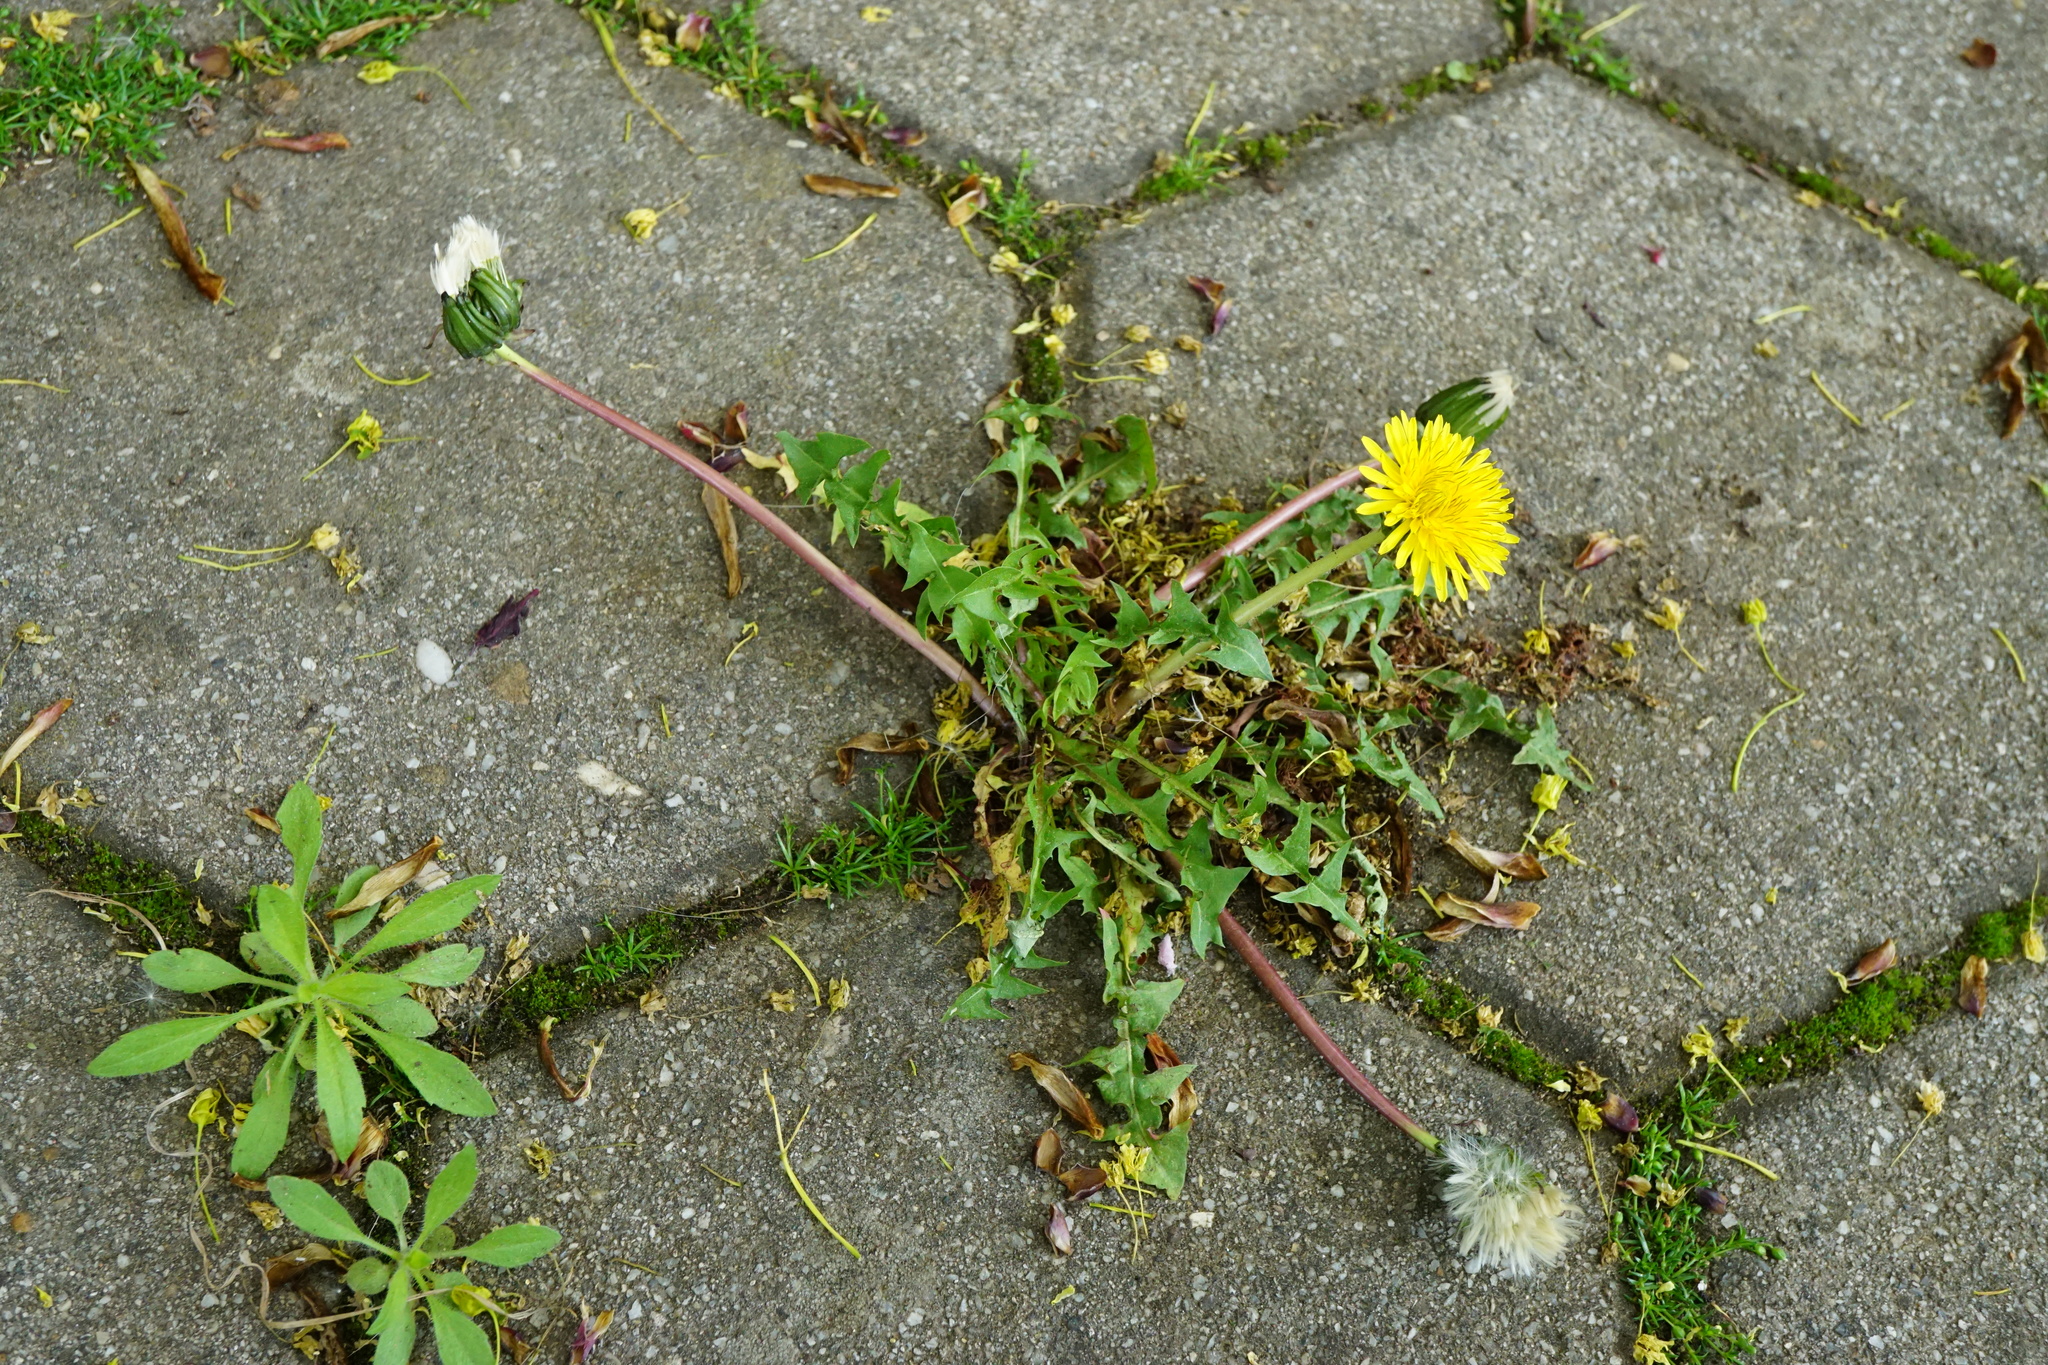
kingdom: Plantae
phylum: Tracheophyta
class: Magnoliopsida
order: Asterales
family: Asteraceae
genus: Taraxacum
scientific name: Taraxacum
